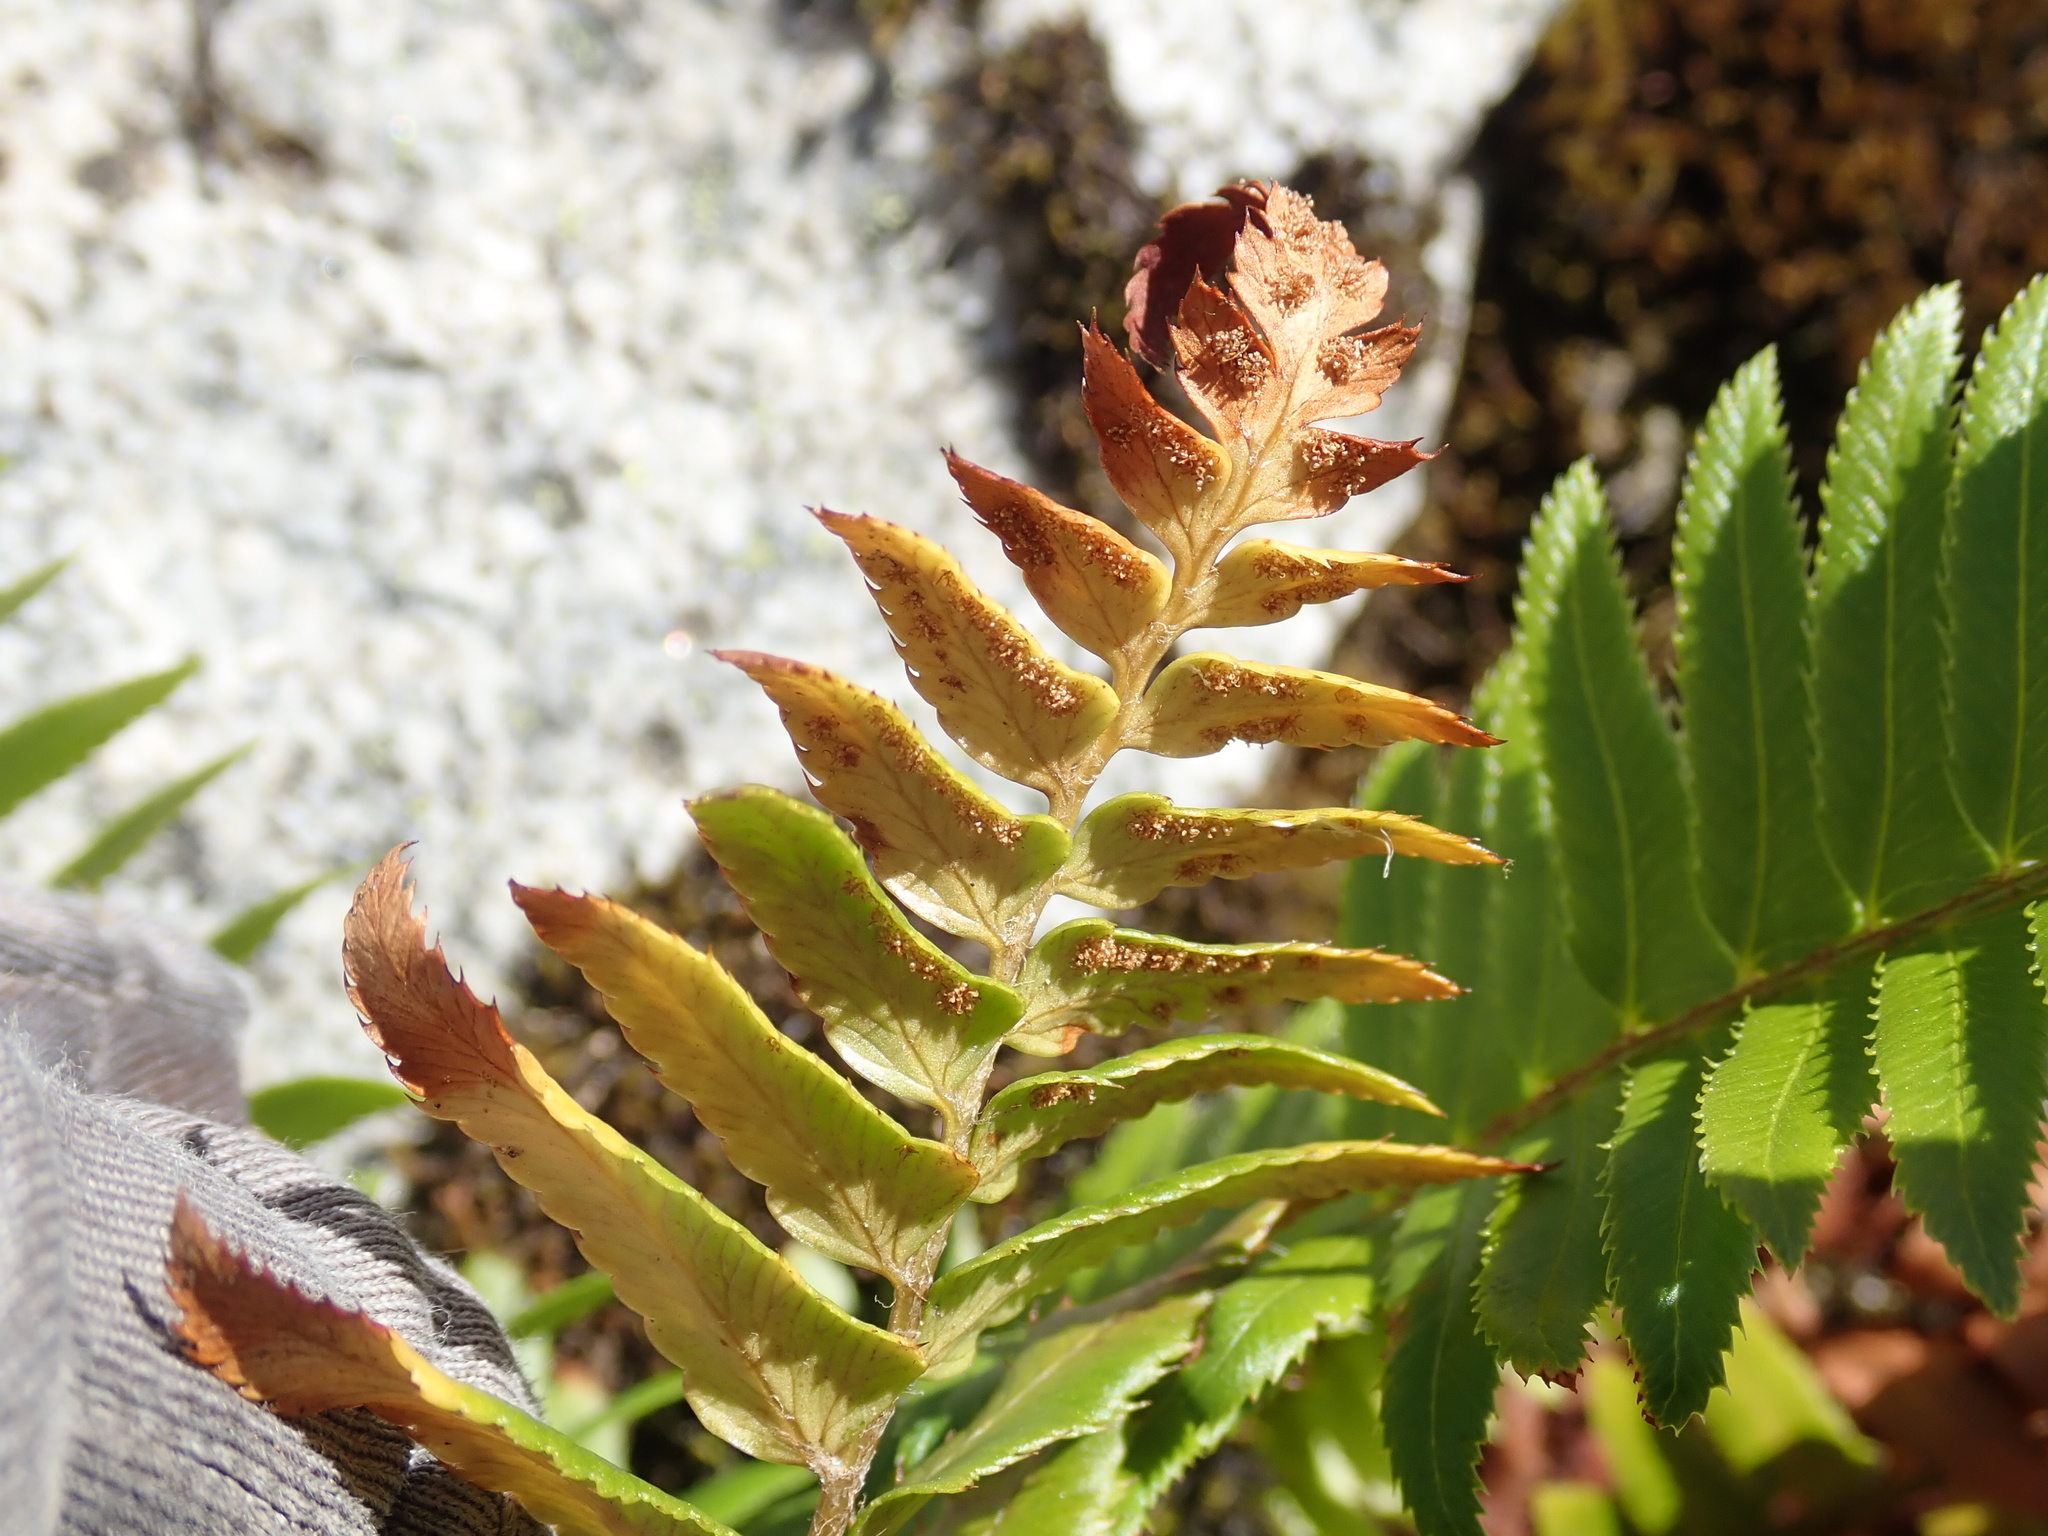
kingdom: Plantae
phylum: Tracheophyta
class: Polypodiopsida
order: Polypodiales
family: Dryopteridaceae
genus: Polystichum
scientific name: Polystichum munitum
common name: Western sword-fern
